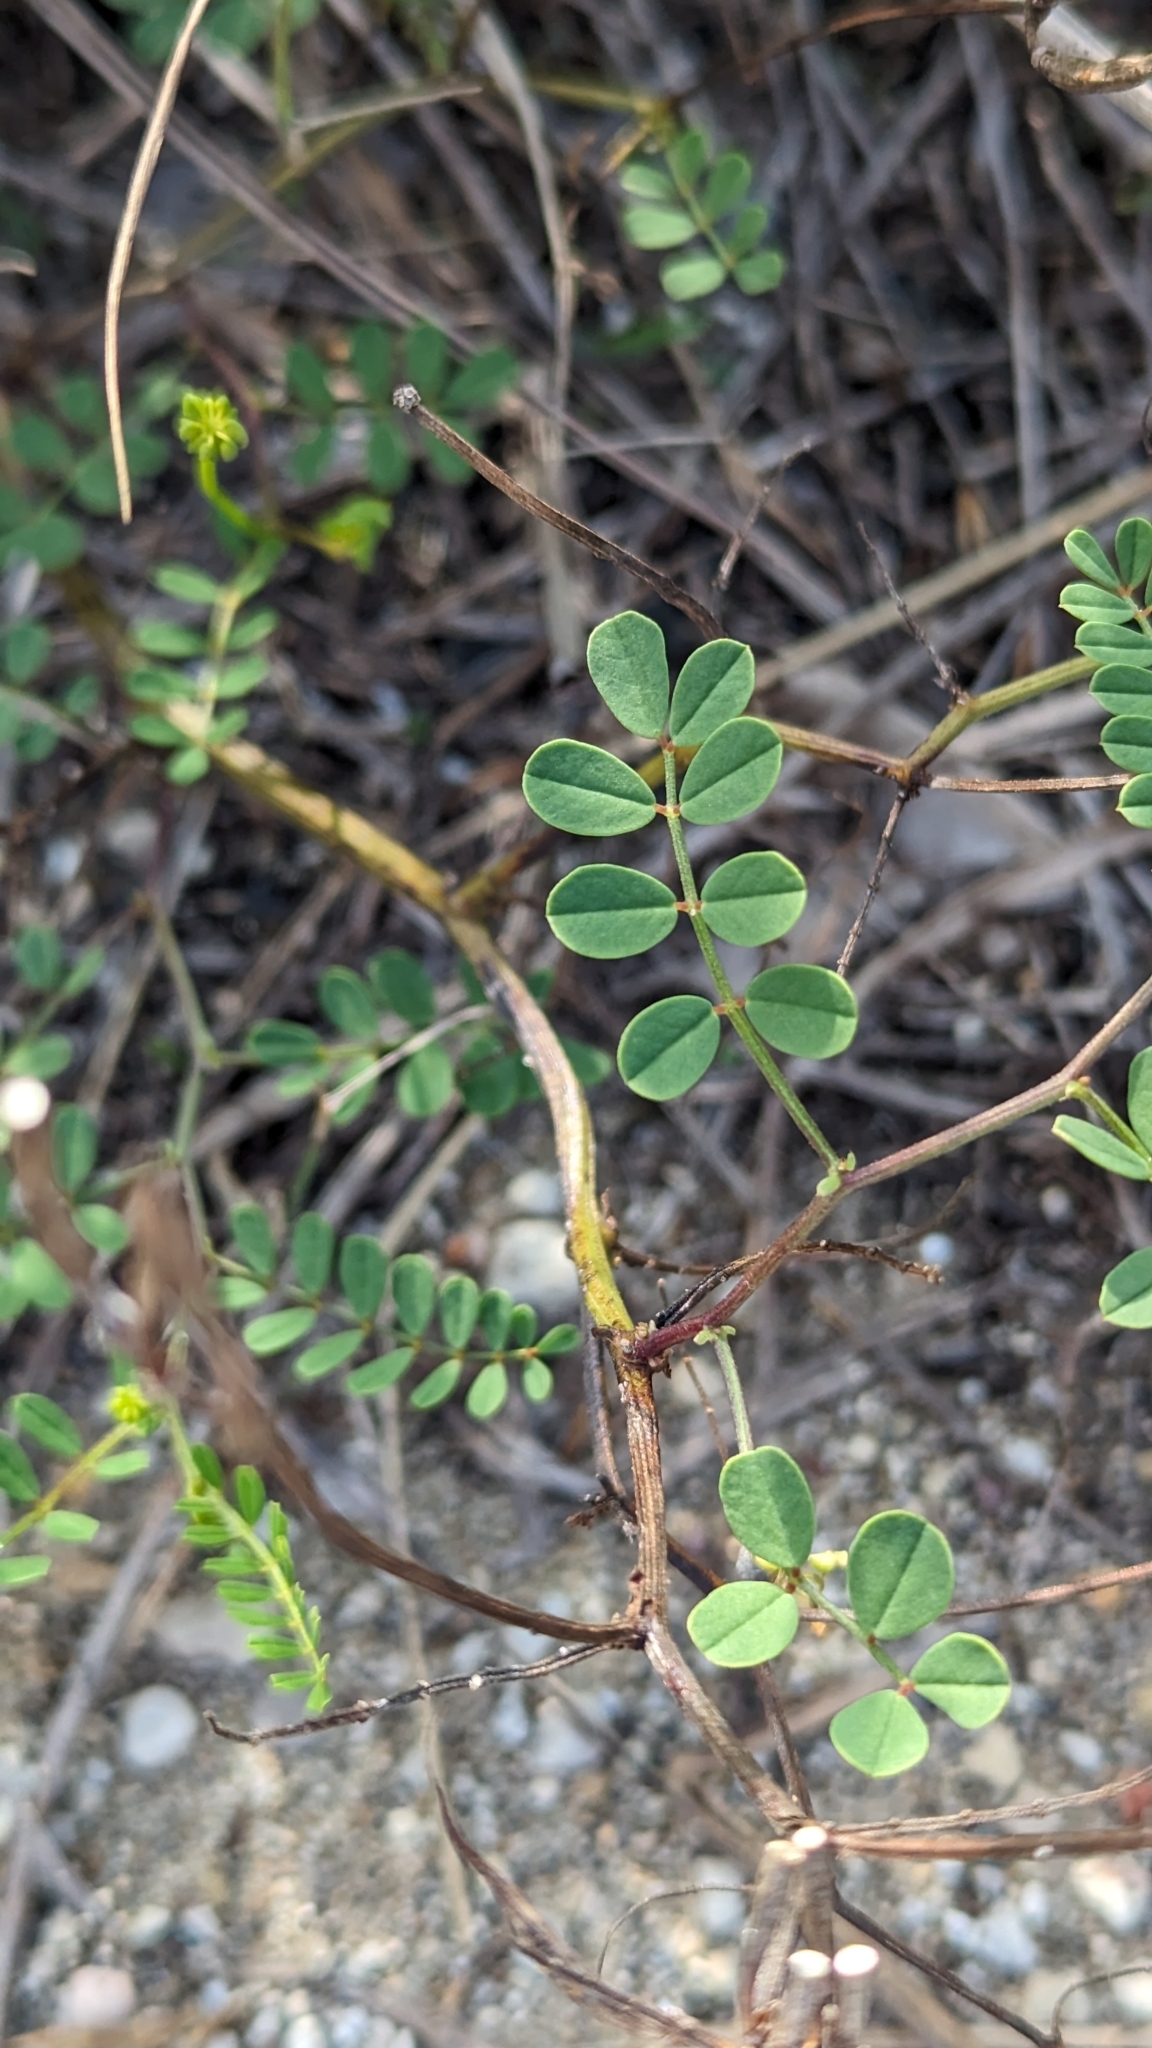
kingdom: Plantae
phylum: Tracheophyta
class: Magnoliopsida
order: Fabales
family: Fabaceae
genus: Coronilla
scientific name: Coronilla varia
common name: Crownvetch
